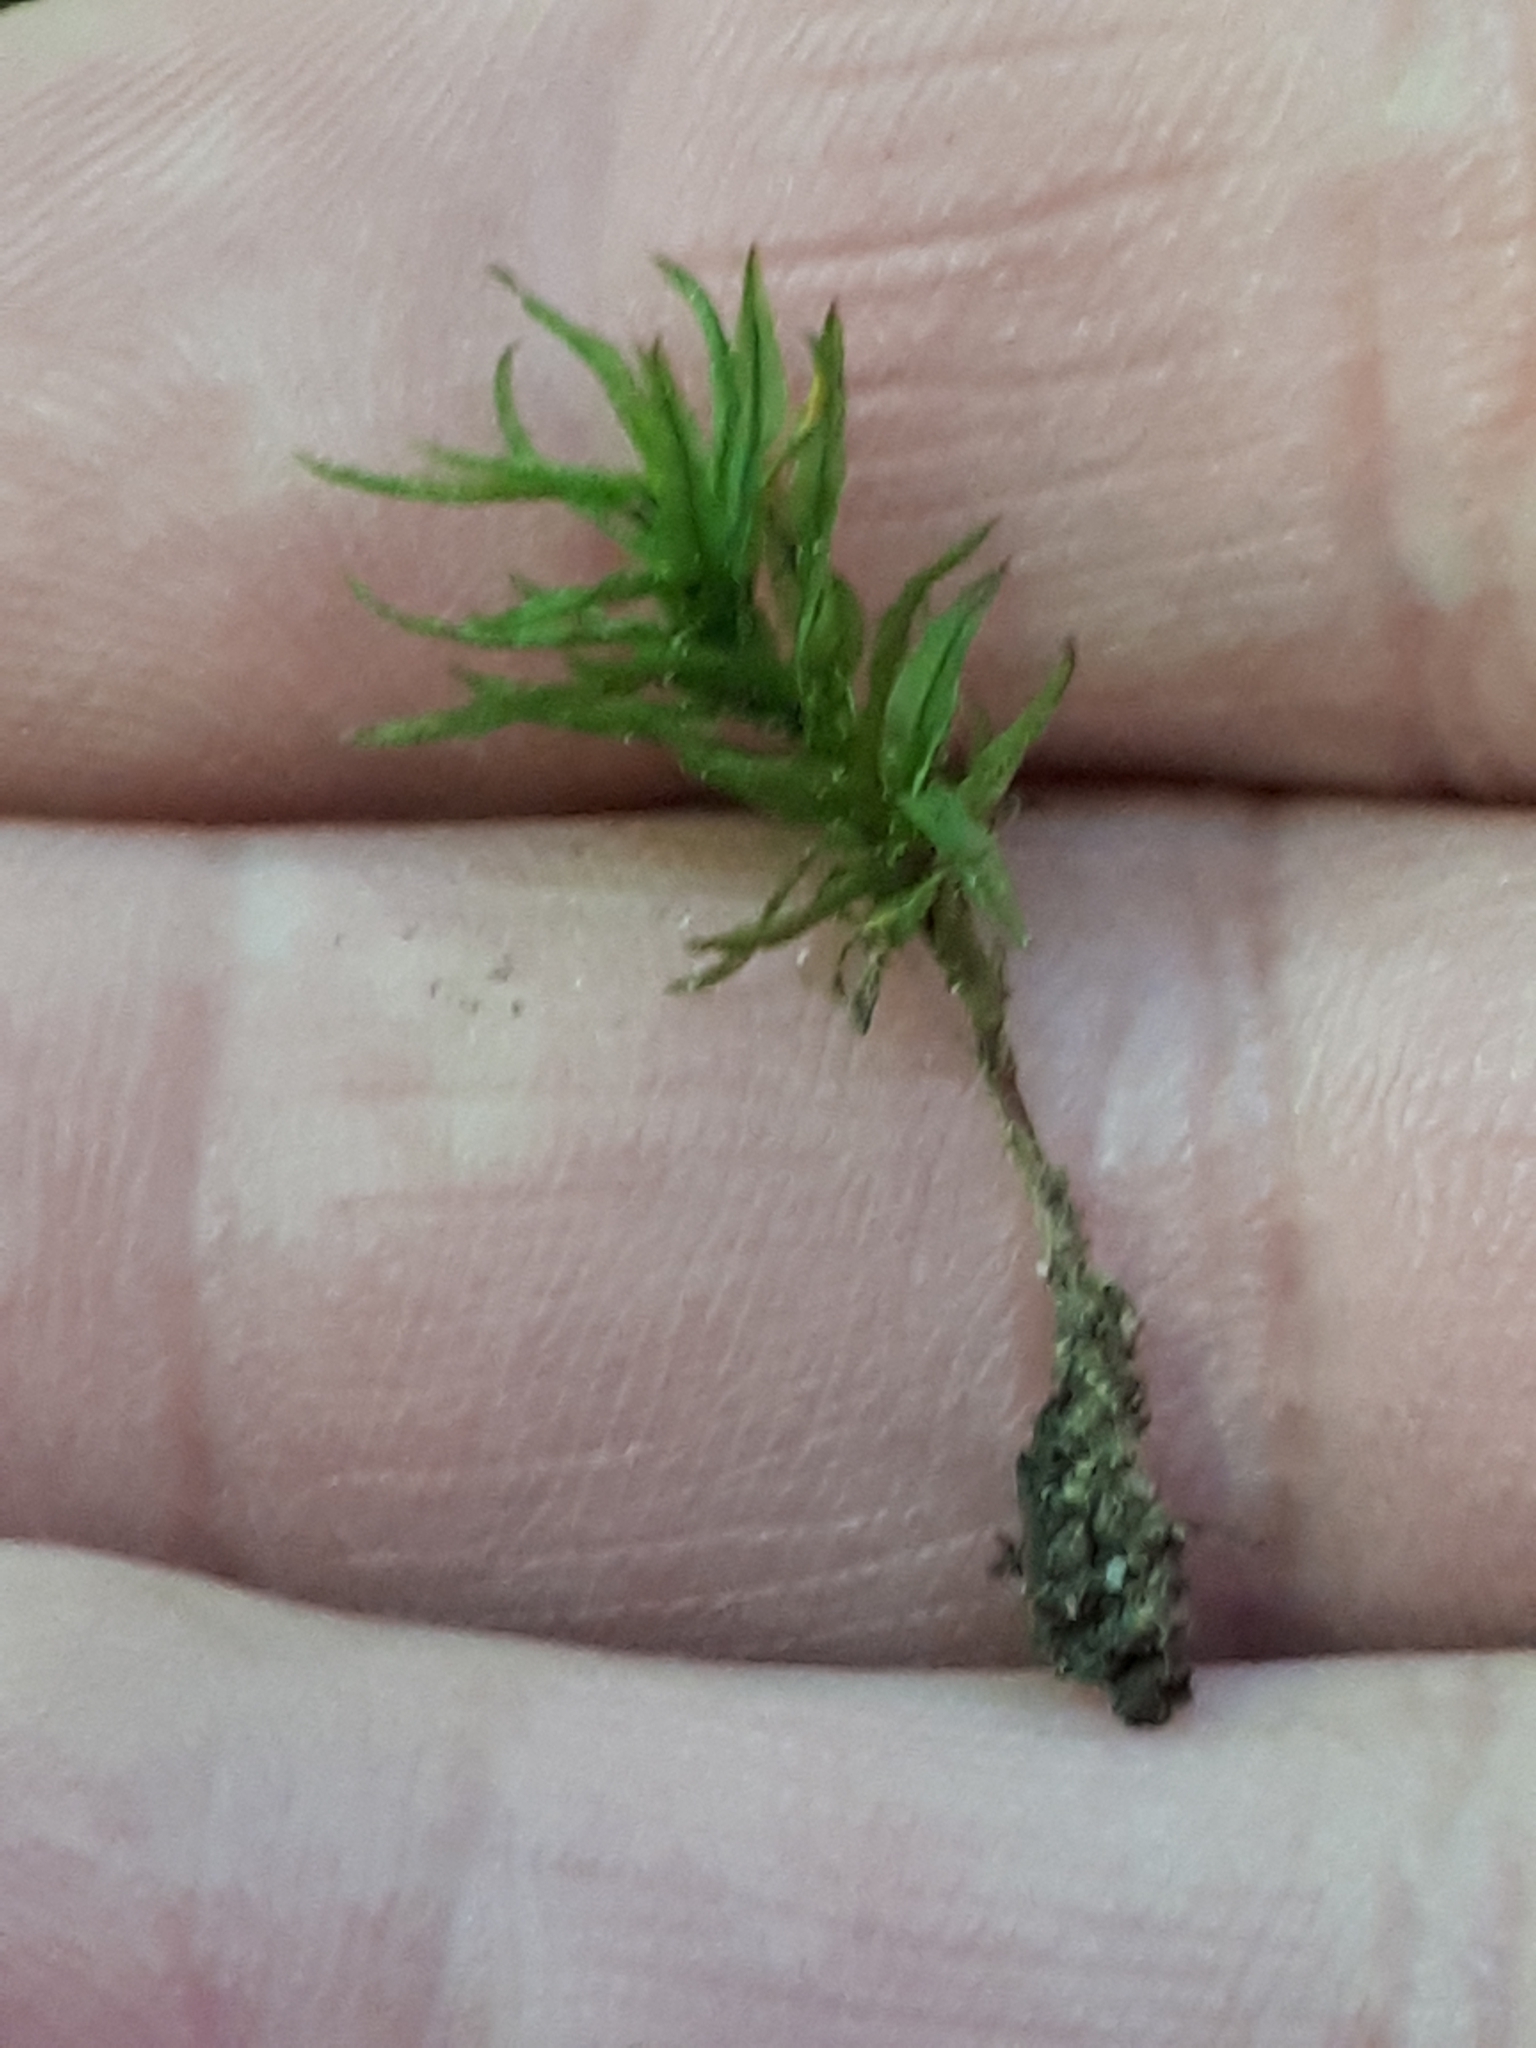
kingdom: Plantae
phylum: Bryophyta
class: Polytrichopsida
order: Polytrichales
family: Polytrichaceae
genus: Atrichum
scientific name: Atrichum undulatum
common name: Common smoothcap
